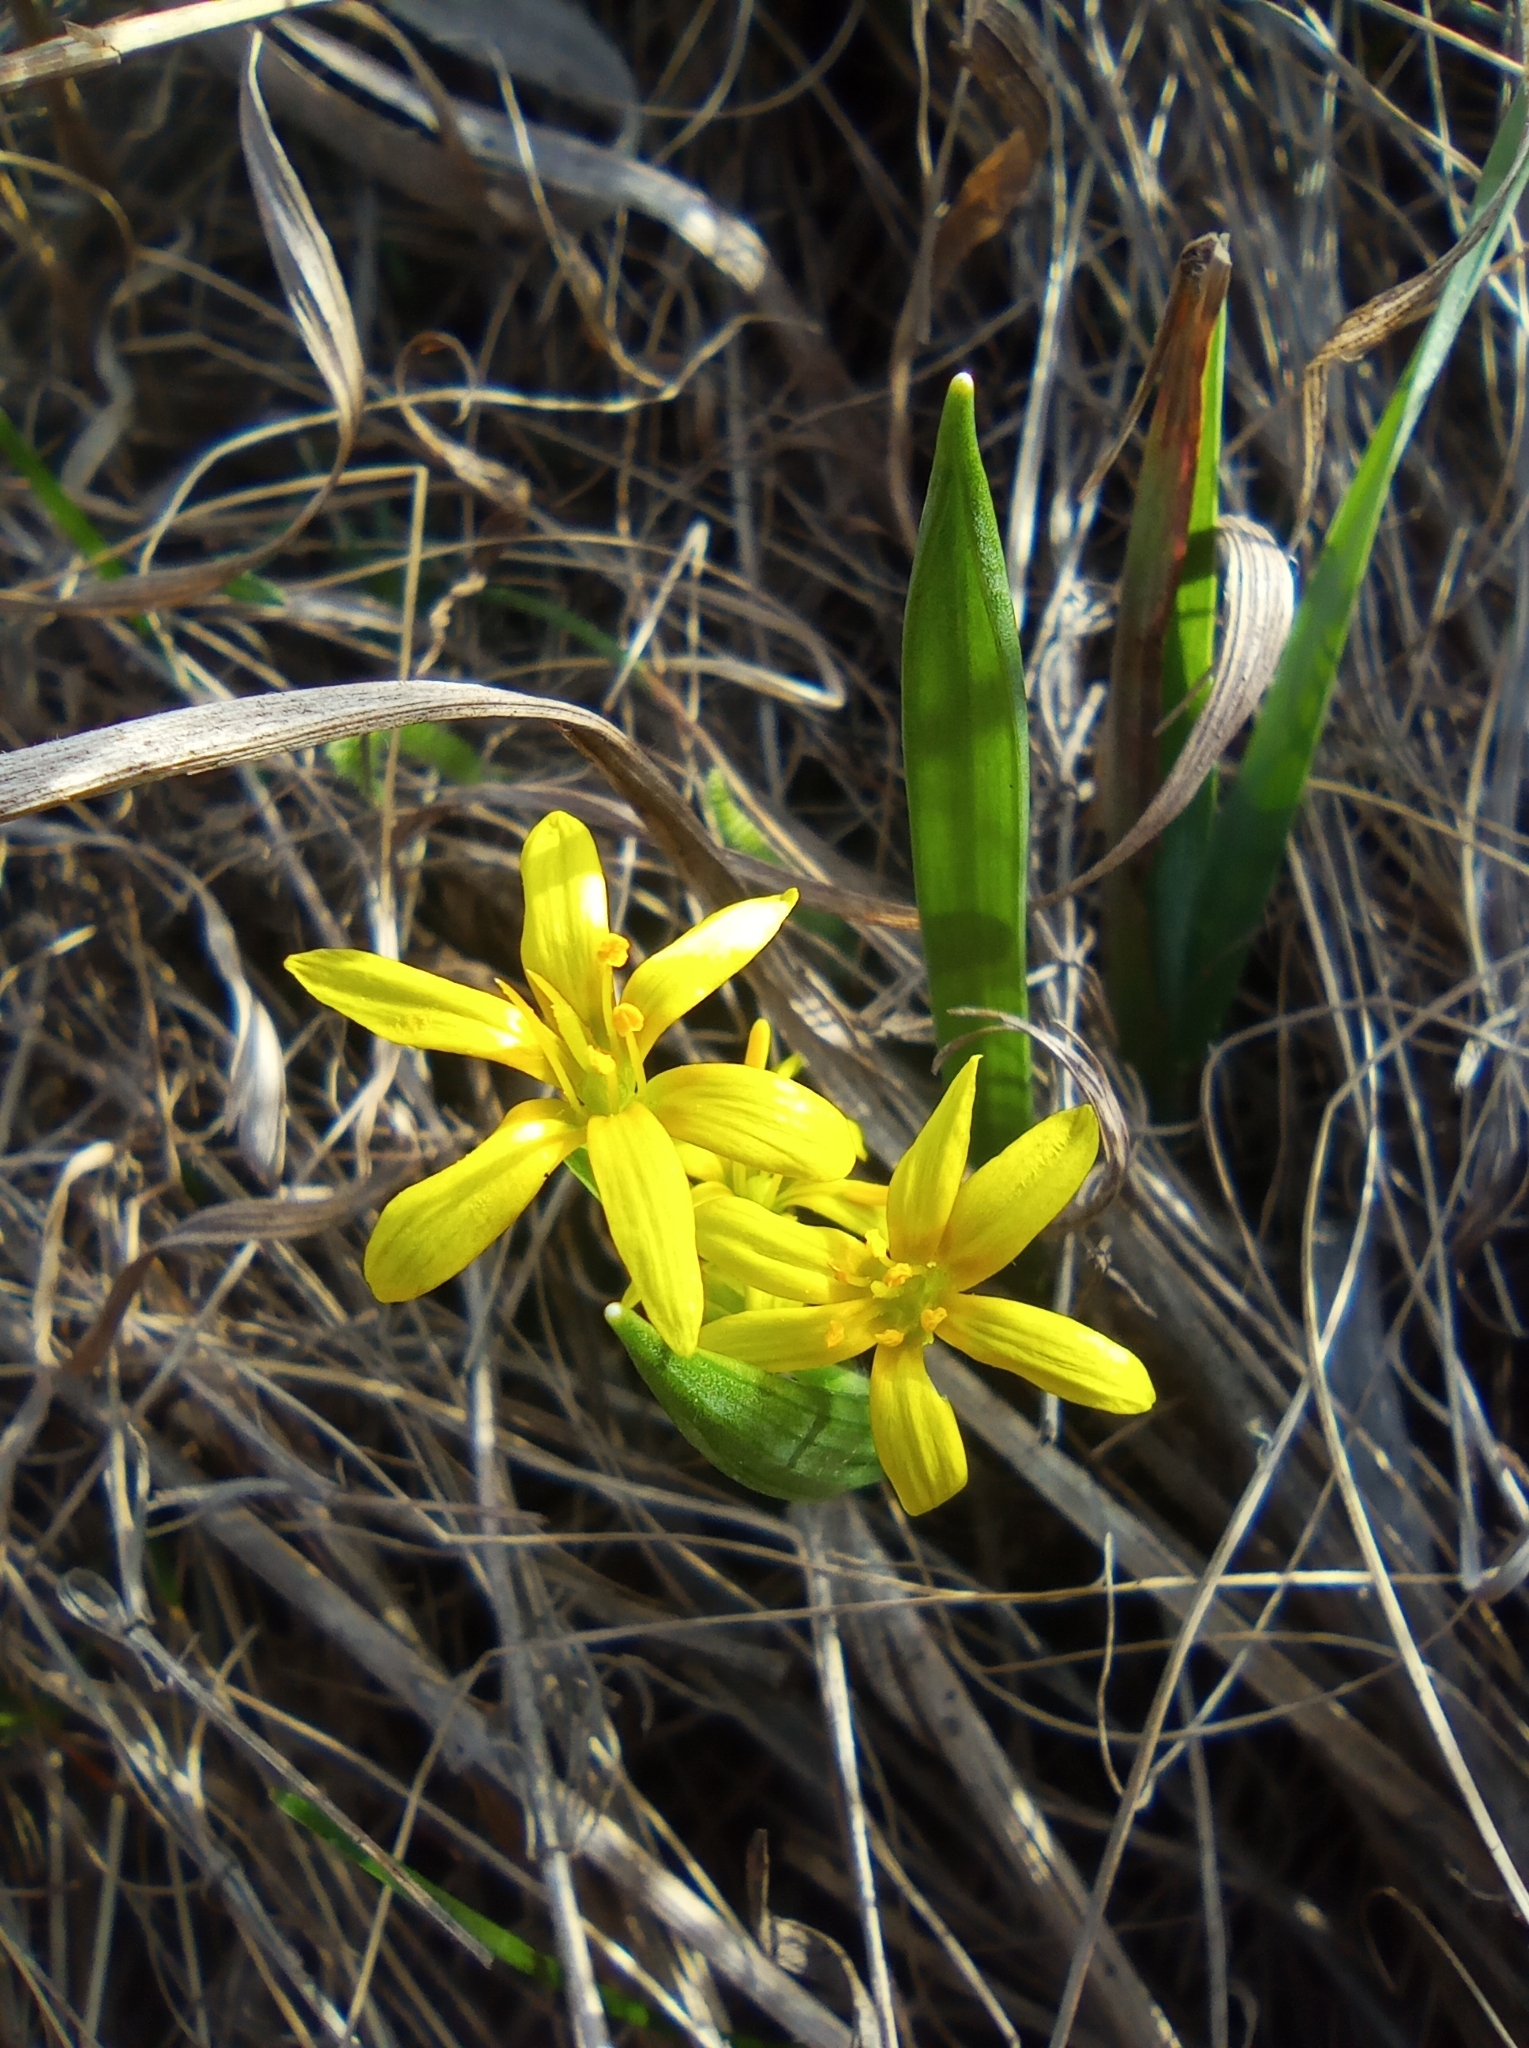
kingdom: Plantae
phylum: Tracheophyta
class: Liliopsida
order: Liliales
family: Liliaceae
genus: Gagea
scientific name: Gagea lutea
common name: Yellow star-of-bethlehem
